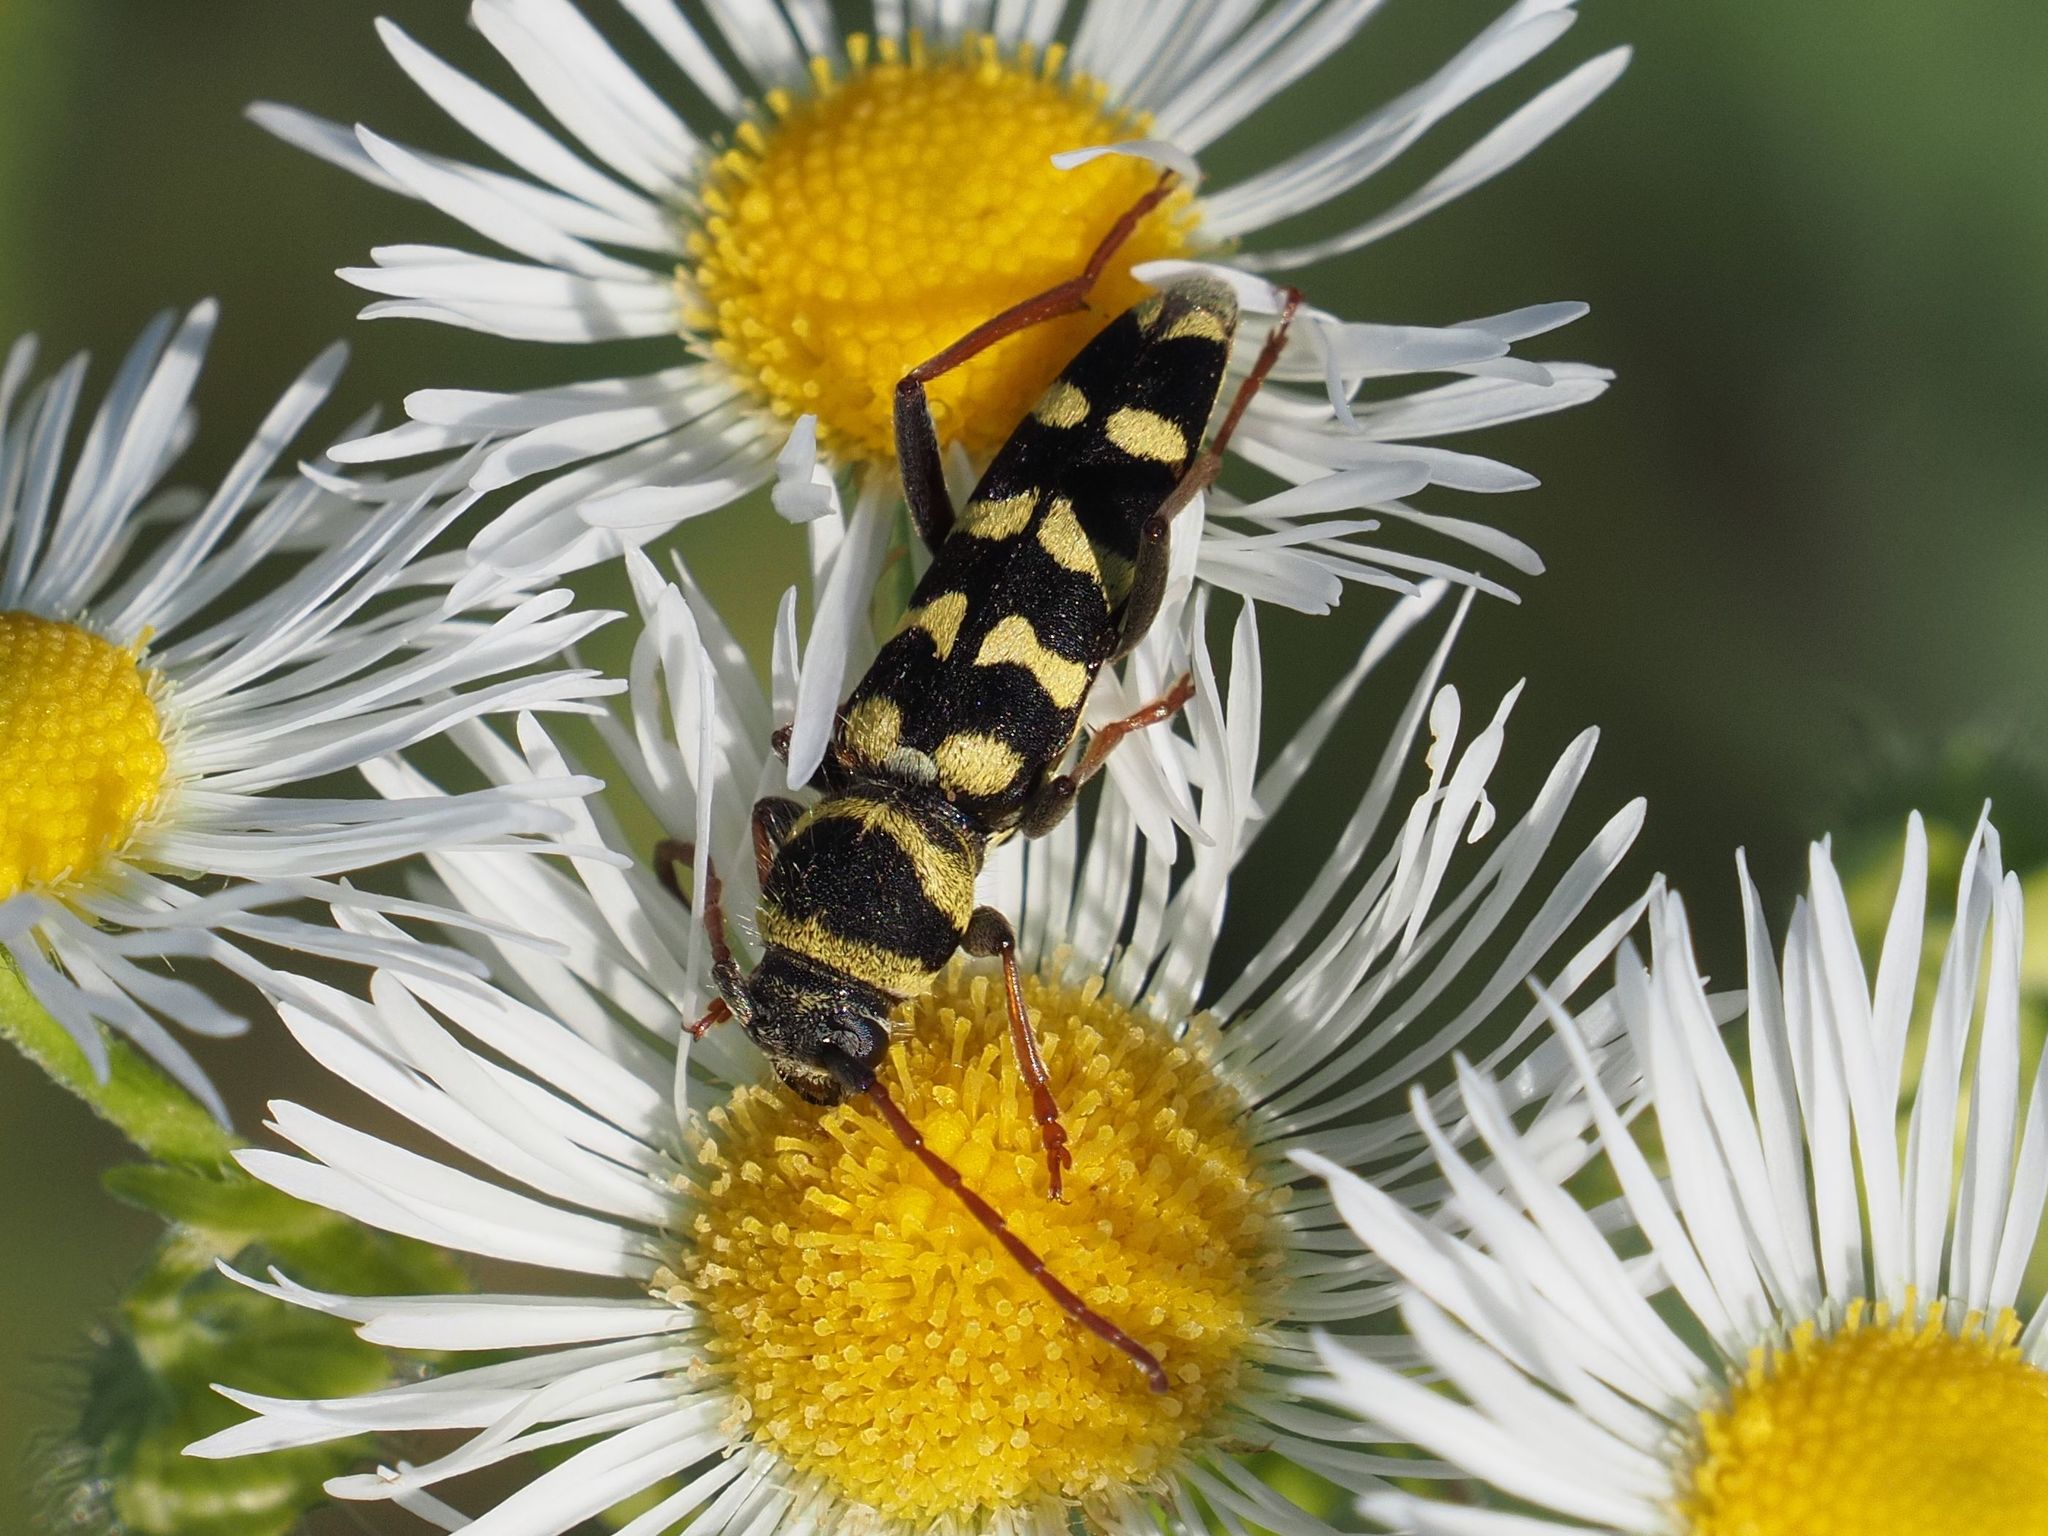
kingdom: Animalia
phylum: Arthropoda
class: Insecta
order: Coleoptera
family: Cerambycidae
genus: Plagionotus
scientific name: Plagionotus floralis
